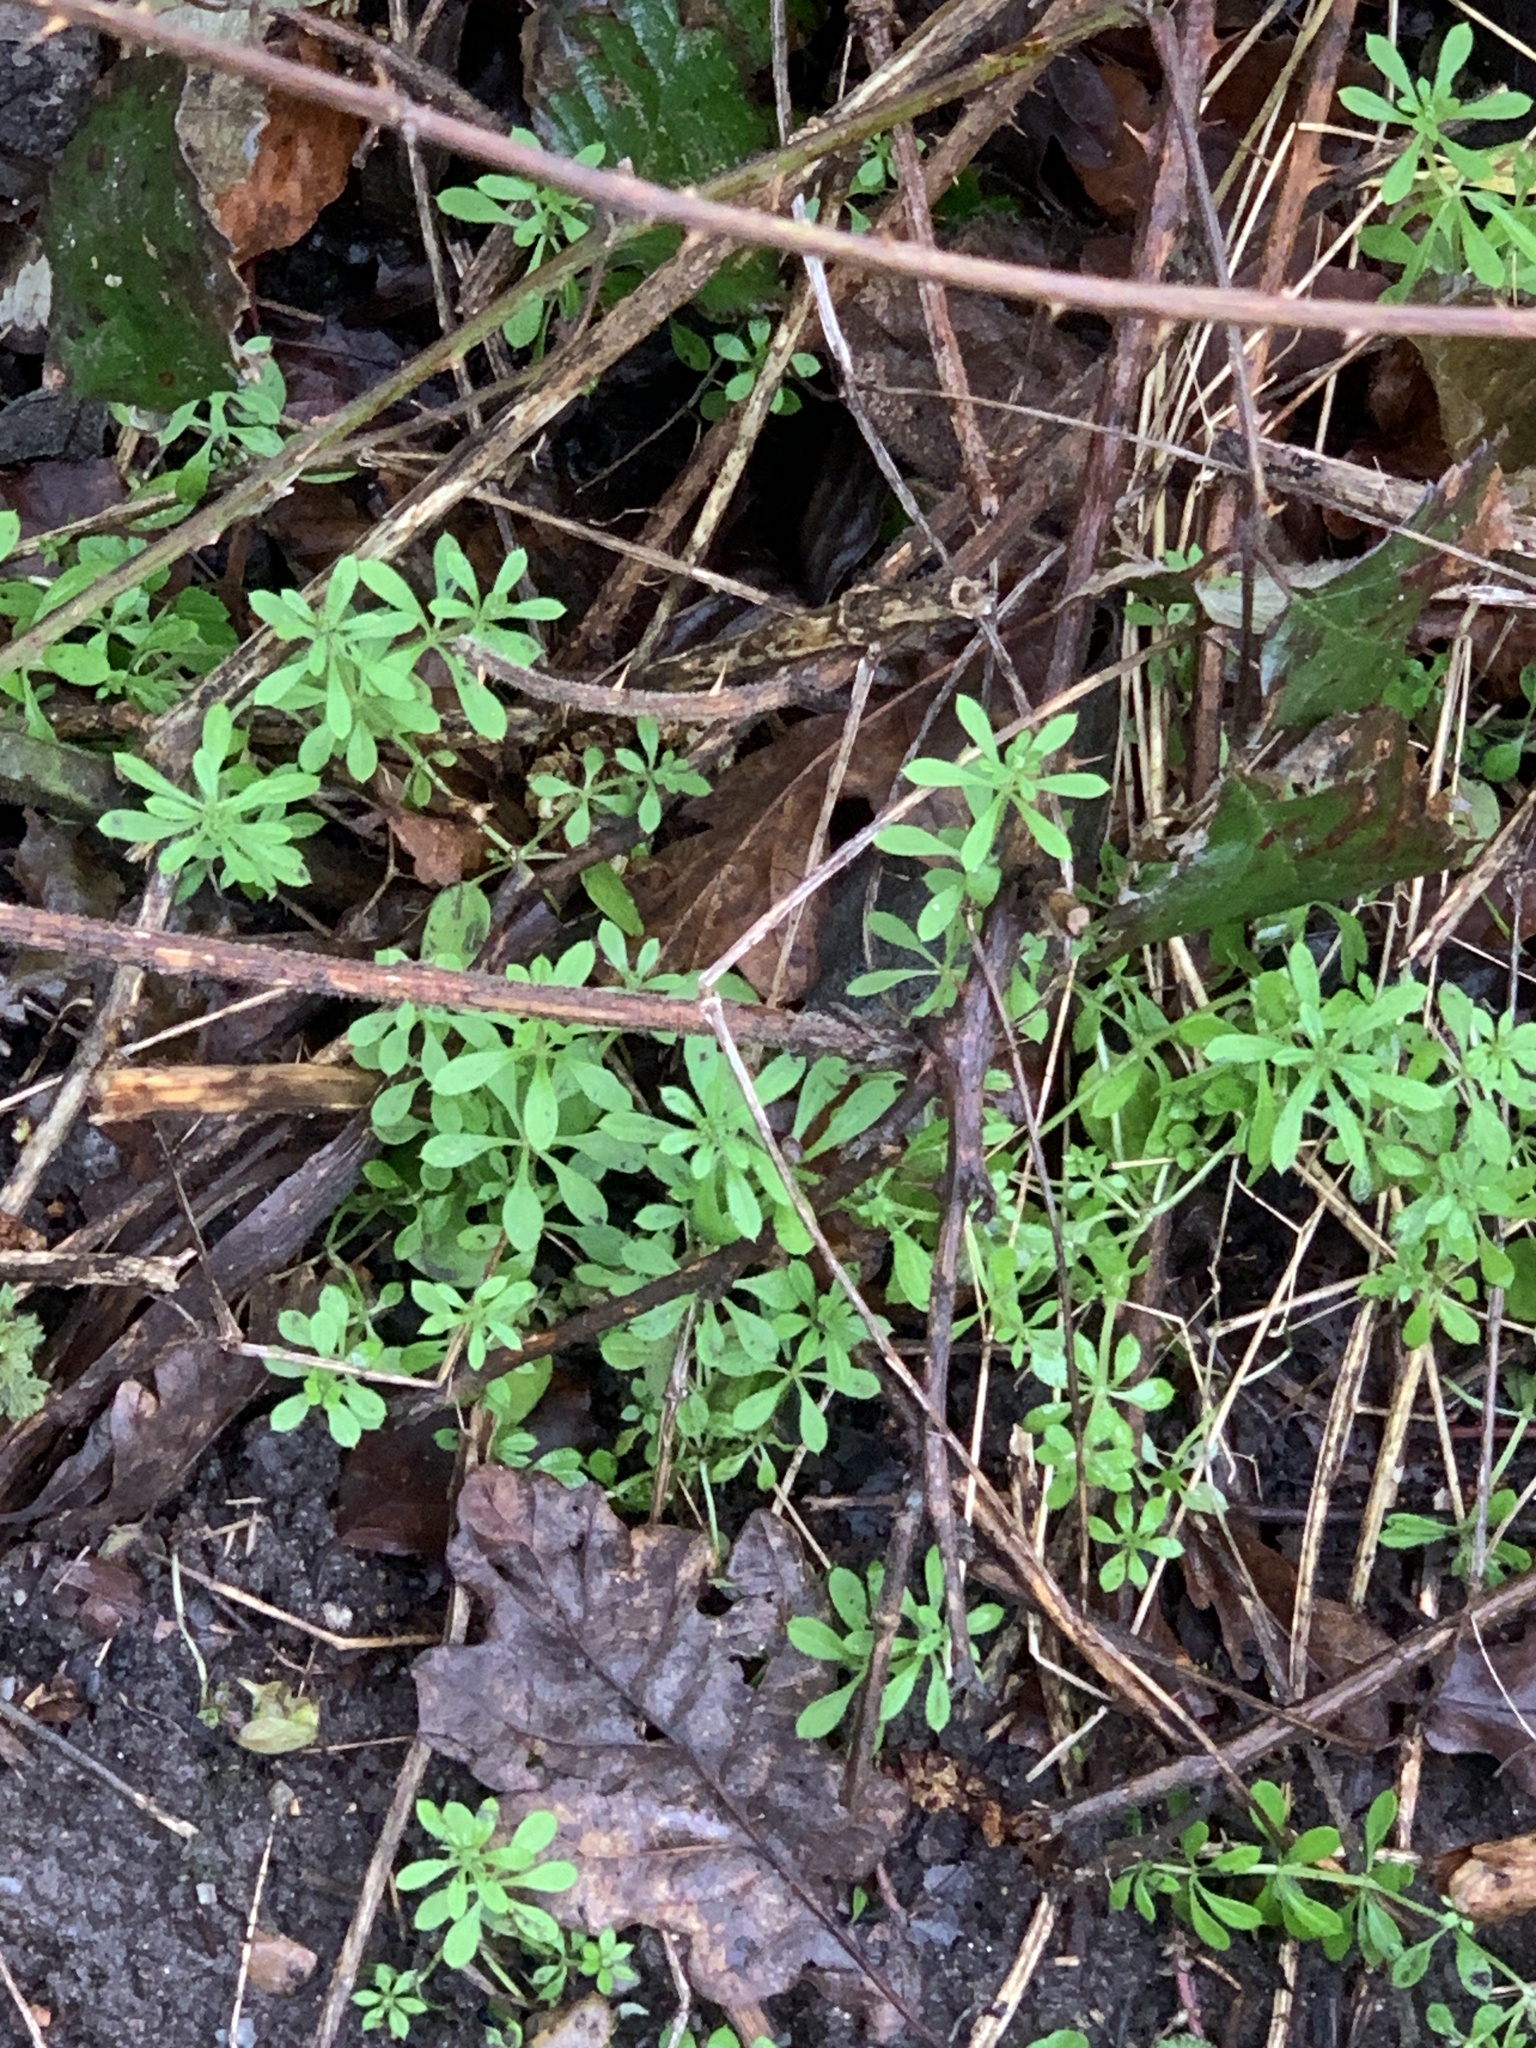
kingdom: Plantae
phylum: Tracheophyta
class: Magnoliopsida
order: Gentianales
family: Rubiaceae
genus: Galium
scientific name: Galium aparine
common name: Cleavers
